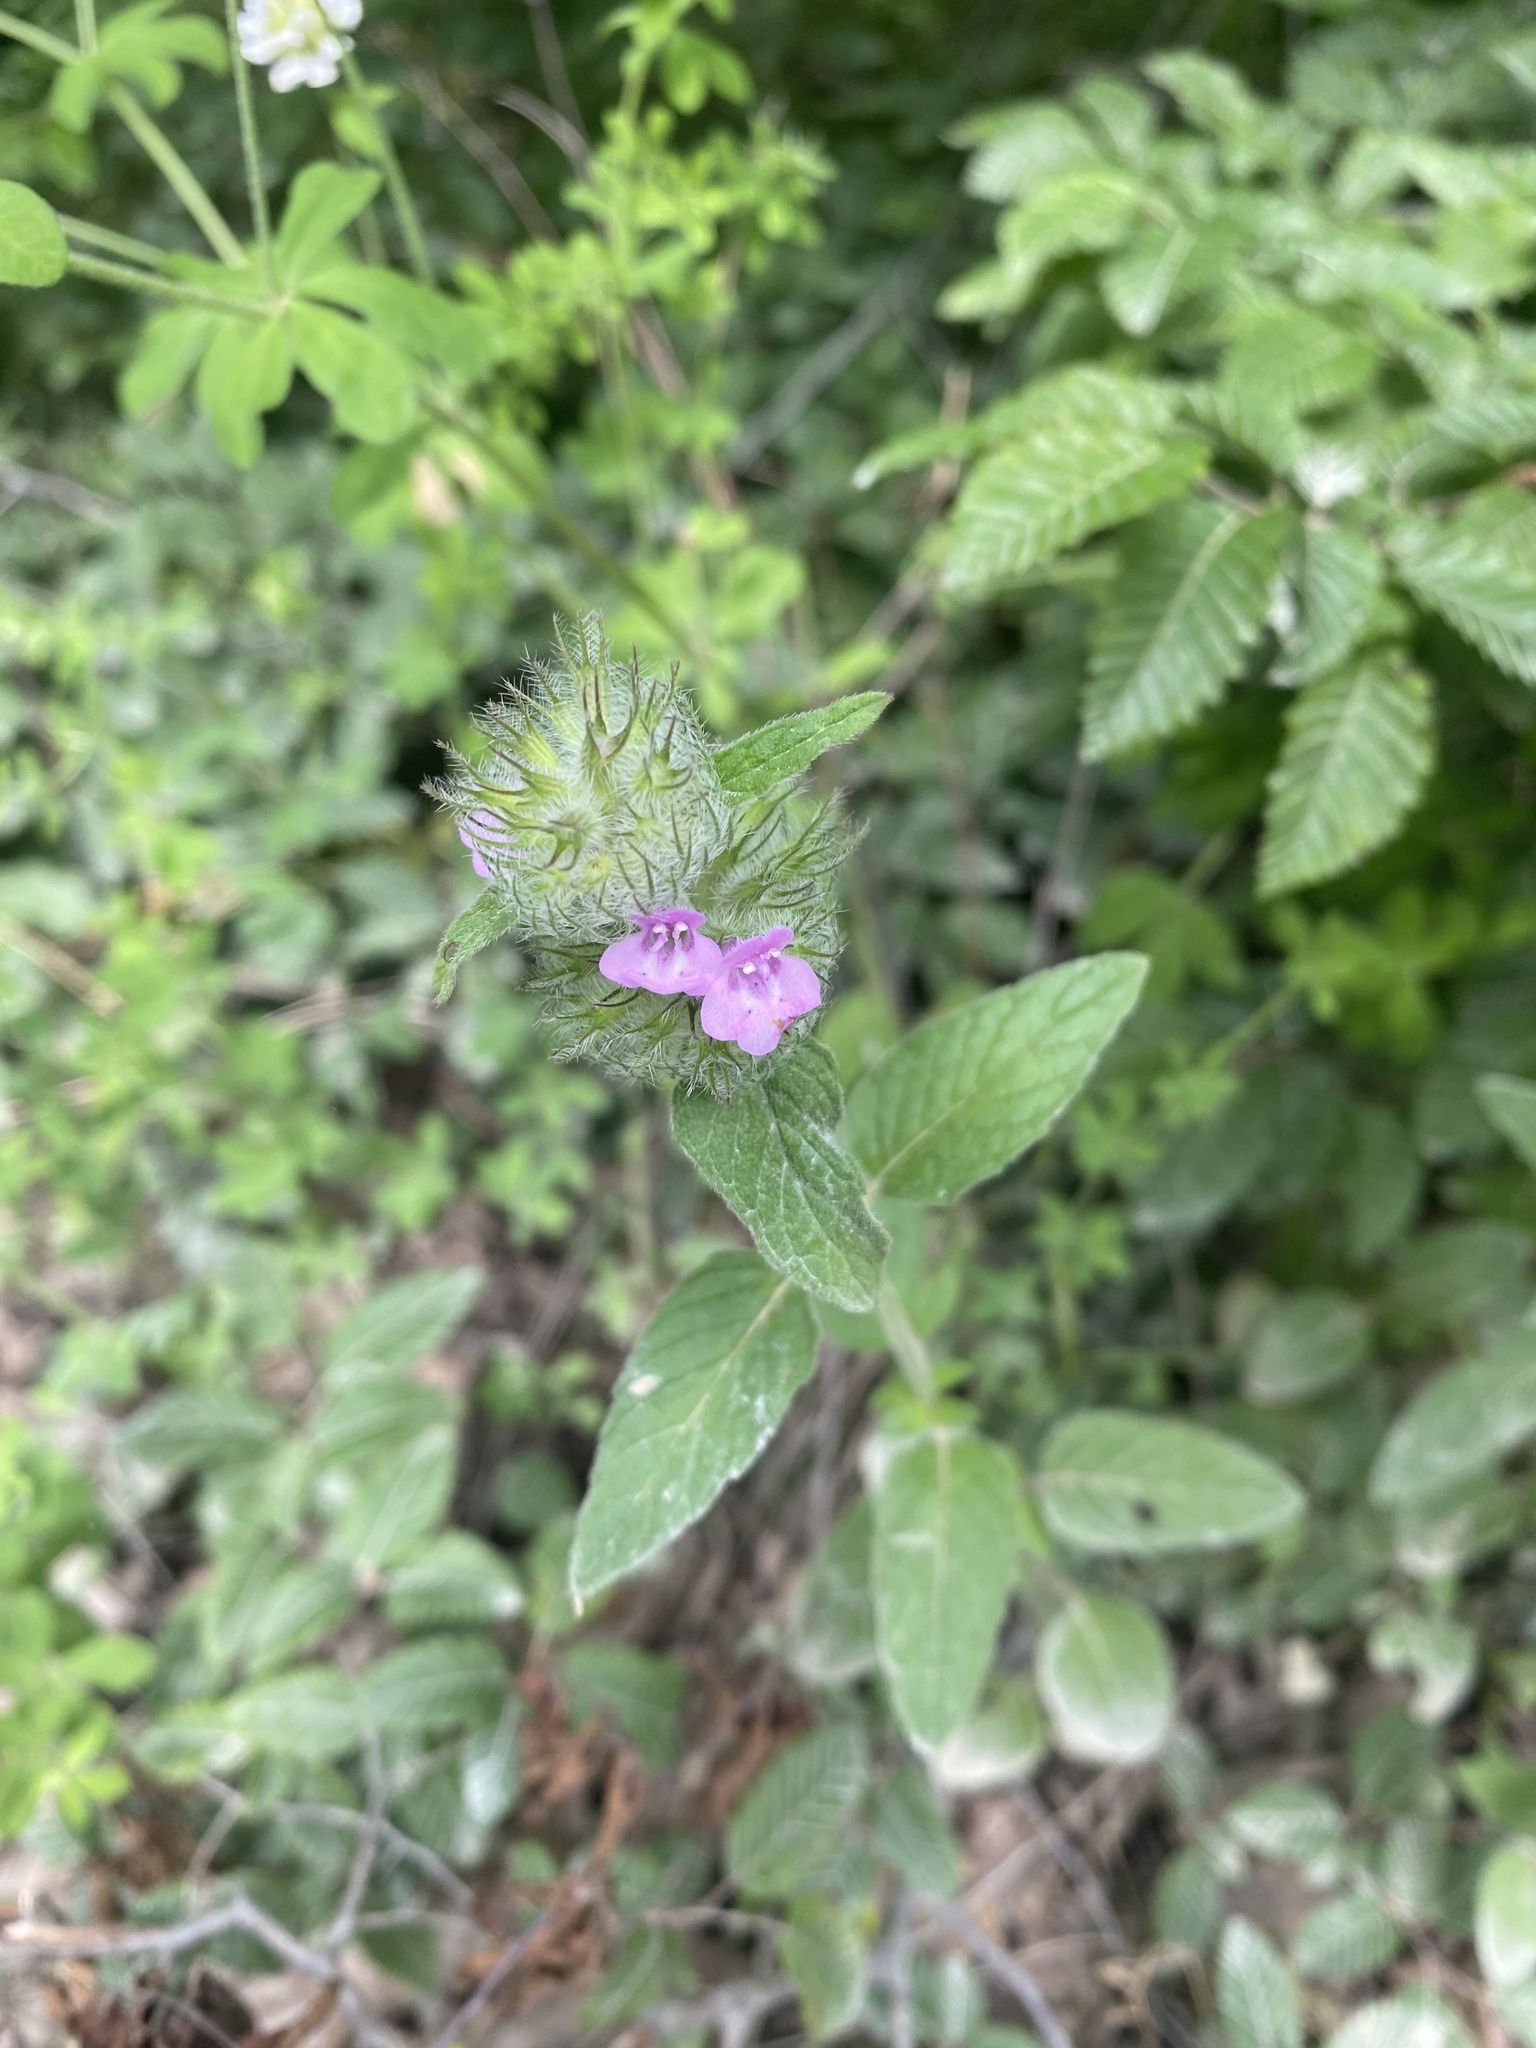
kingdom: Plantae
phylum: Tracheophyta
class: Magnoliopsida
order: Lamiales
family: Lamiaceae
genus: Clinopodium
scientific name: Clinopodium vulgare
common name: Wild basil
